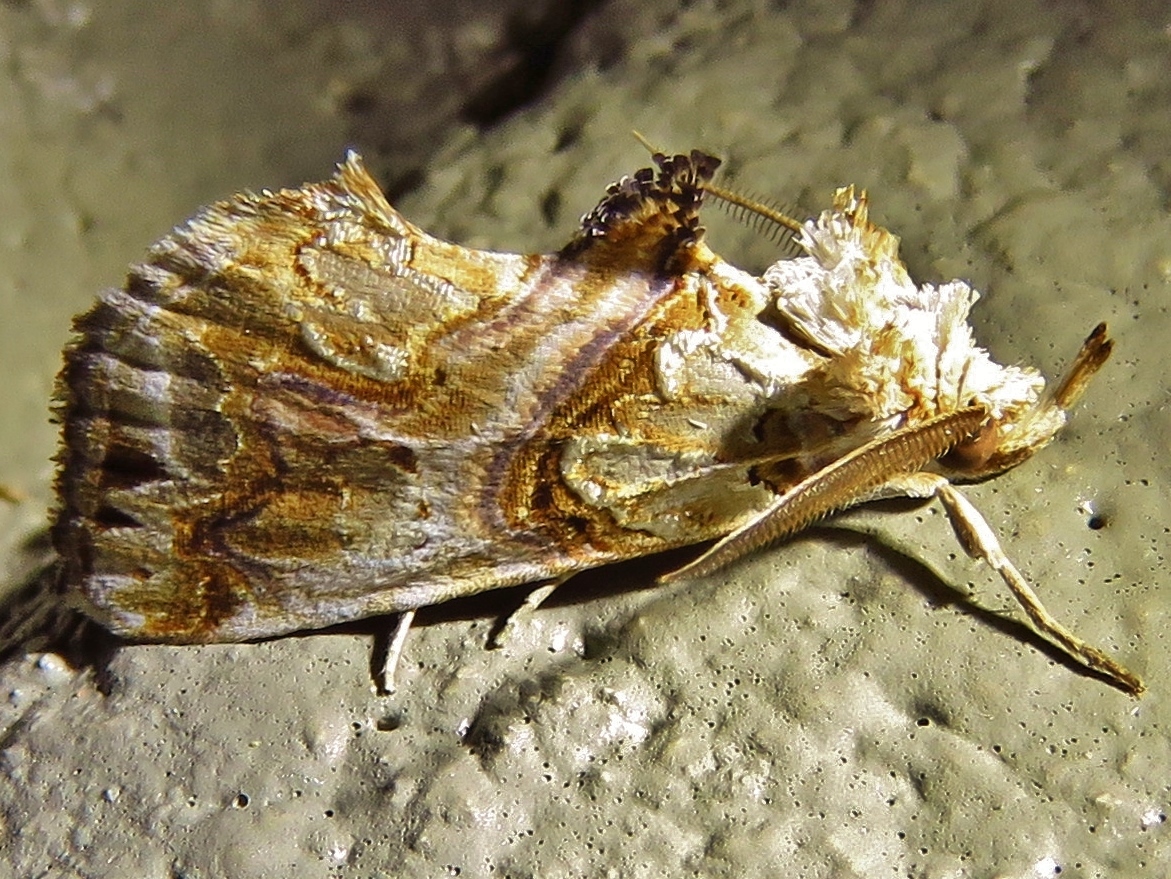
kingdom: Animalia
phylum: Arthropoda
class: Insecta
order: Lepidoptera
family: Erebidae
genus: Plusiodonta
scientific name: Plusiodonta compressipalpis
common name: Moonseed moth
